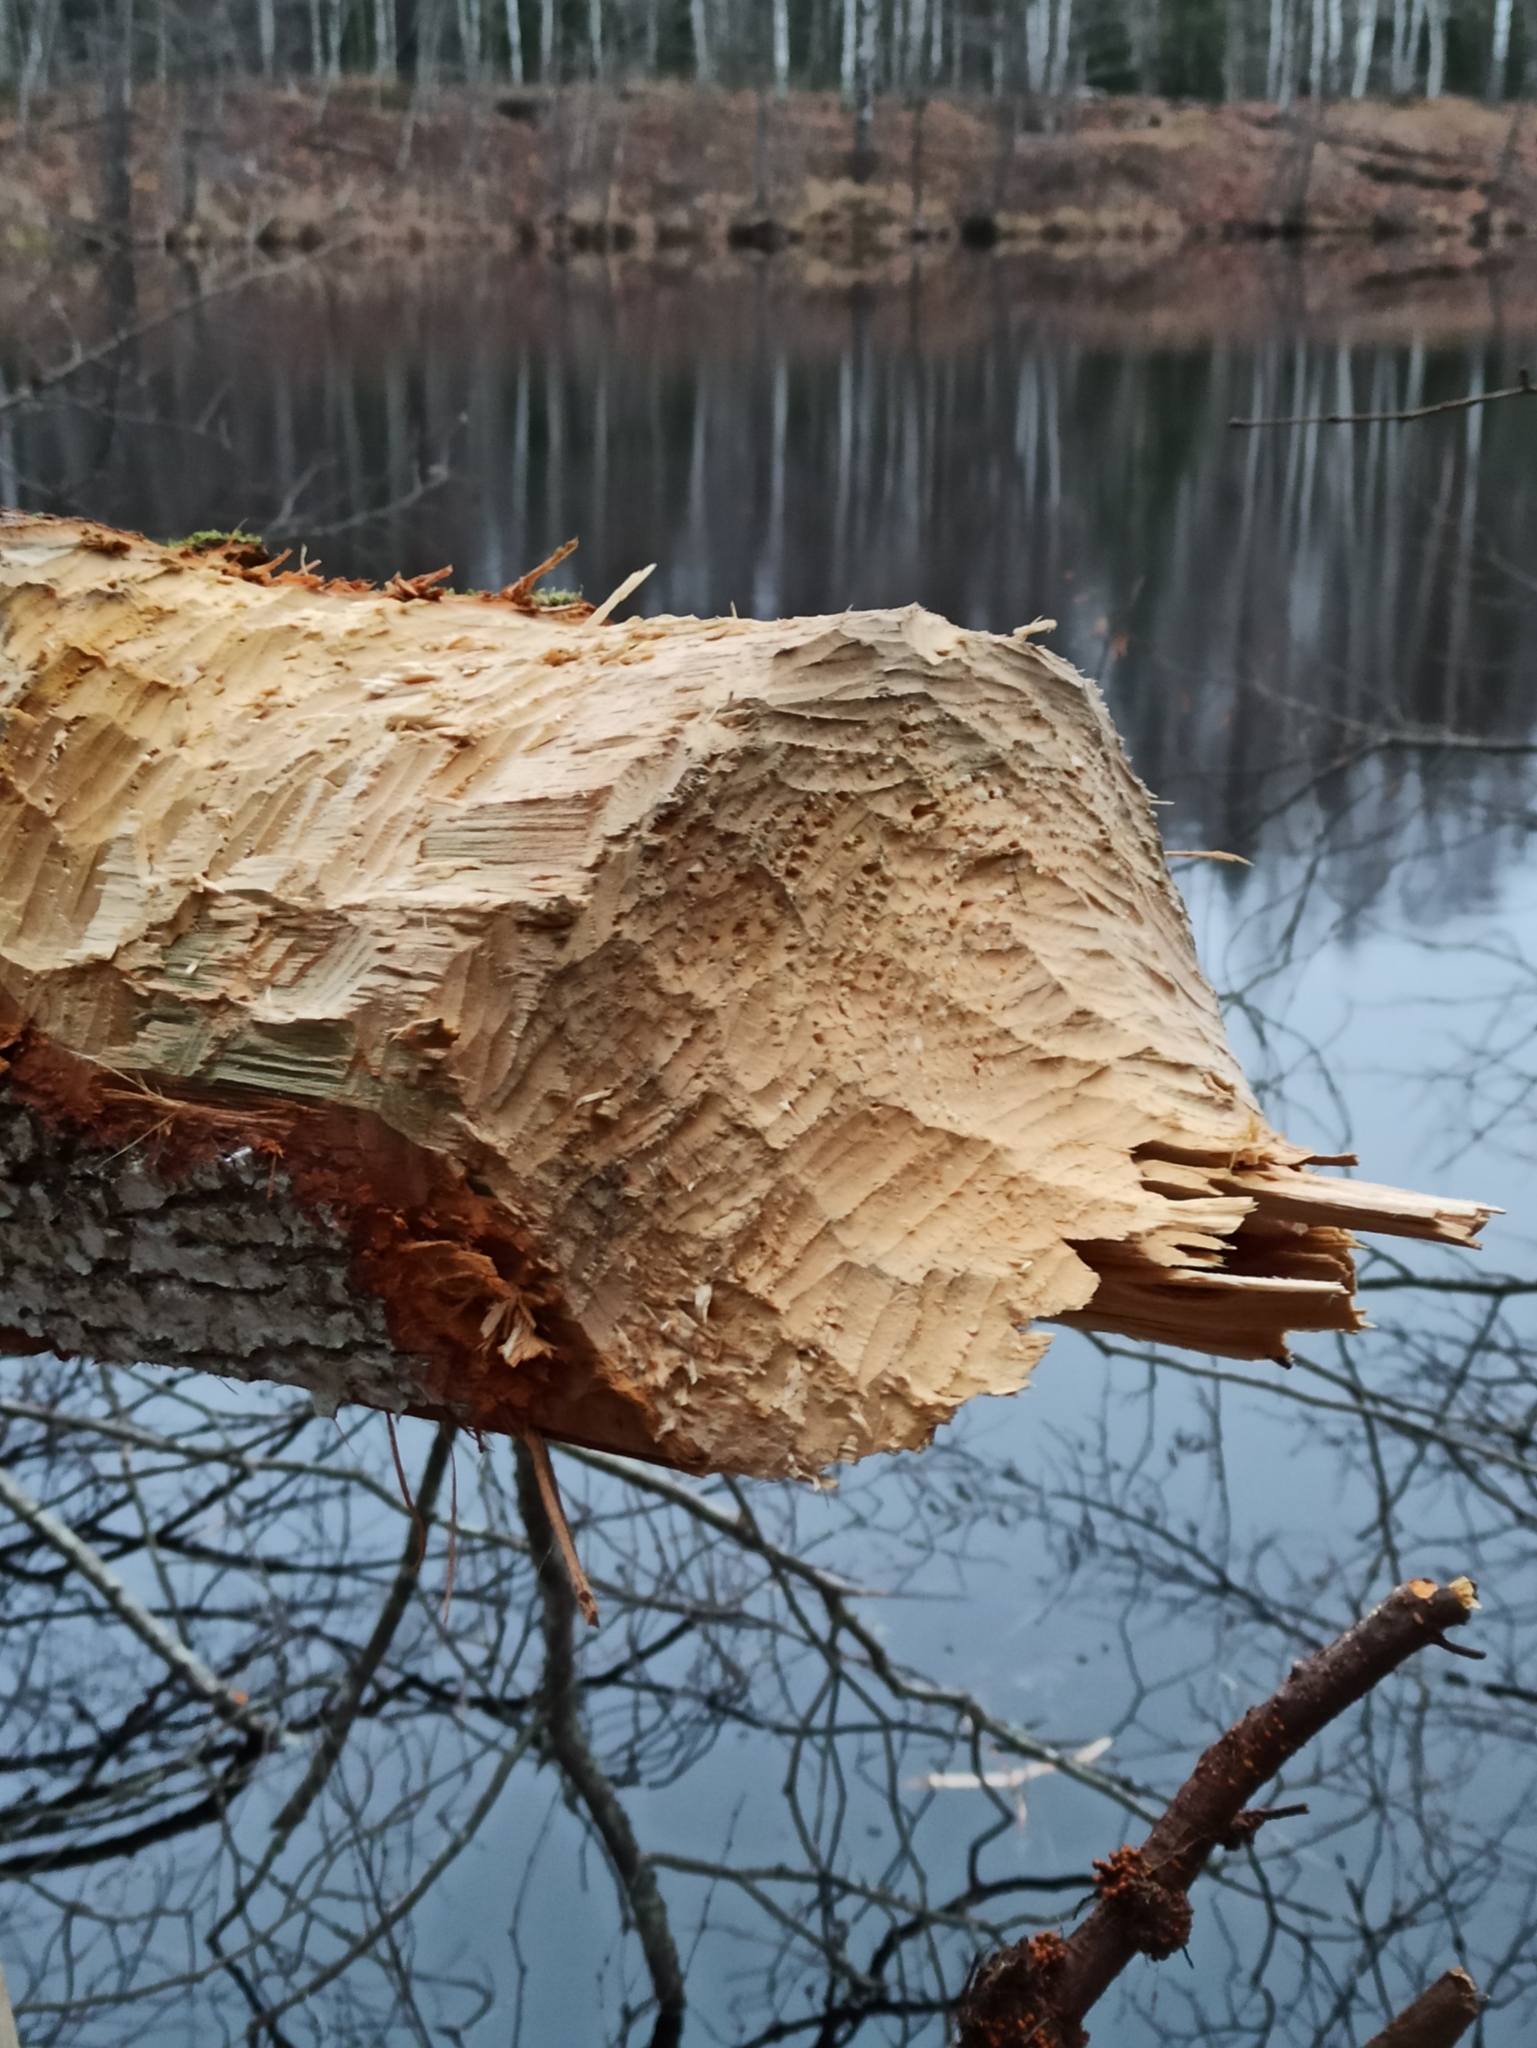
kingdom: Animalia
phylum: Chordata
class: Mammalia
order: Rodentia
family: Castoridae
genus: Castor
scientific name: Castor fiber
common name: Eurasian beaver
